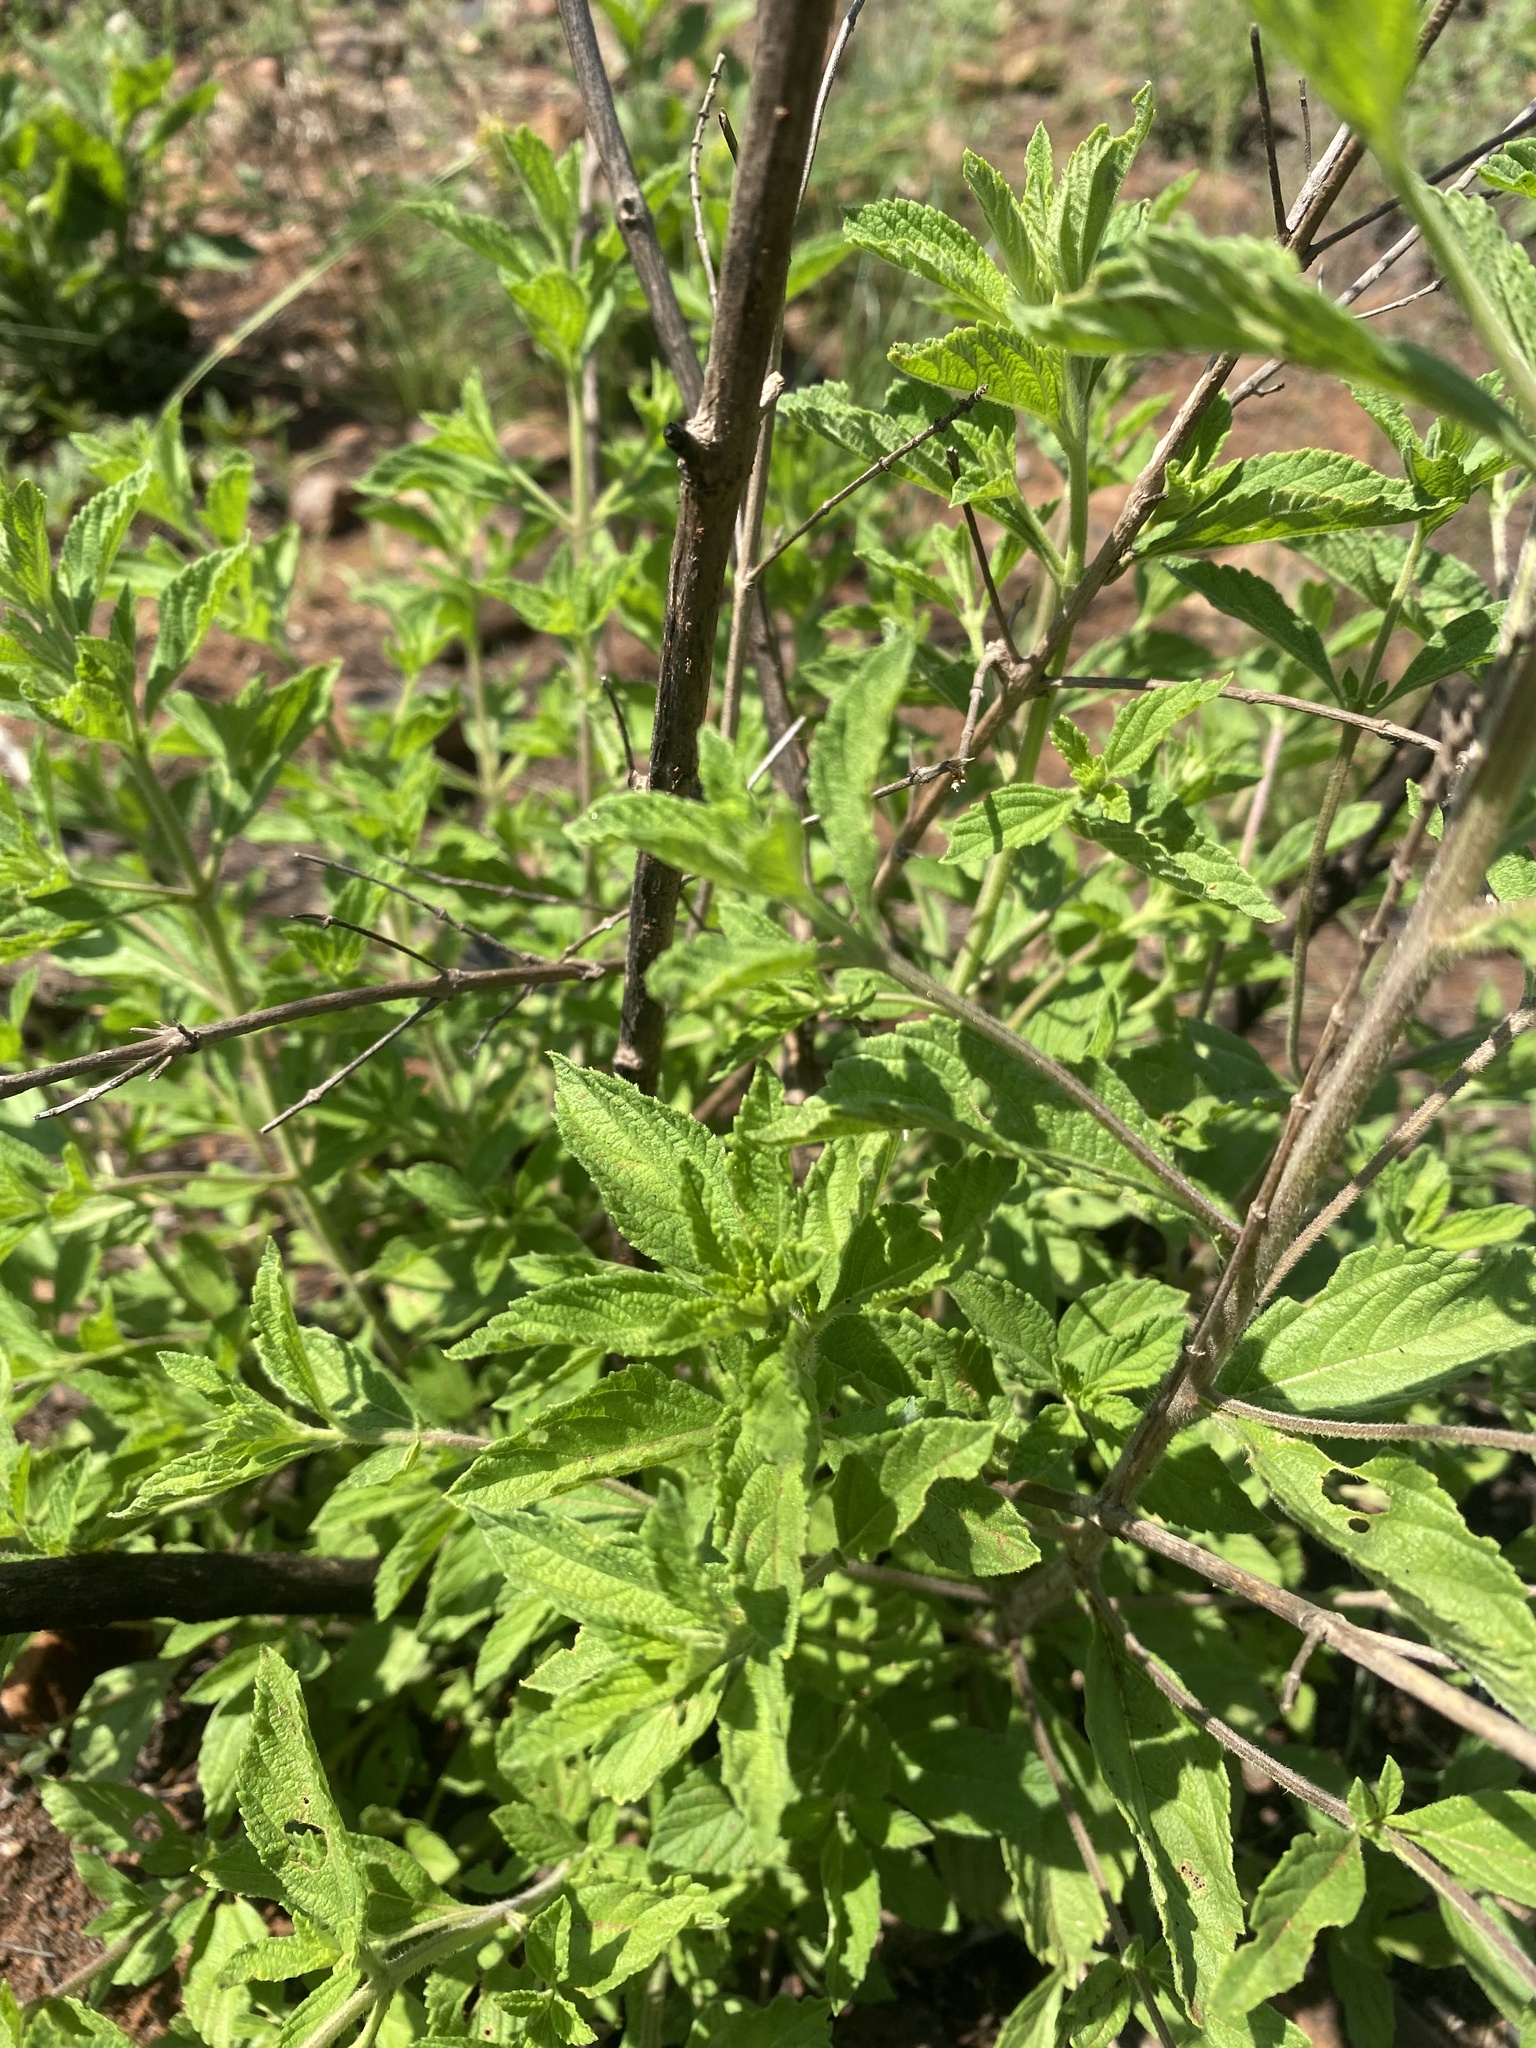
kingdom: Plantae
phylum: Tracheophyta
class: Magnoliopsida
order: Lamiales
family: Verbenaceae
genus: Lippia
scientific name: Lippia javanica
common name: Lemonbush
